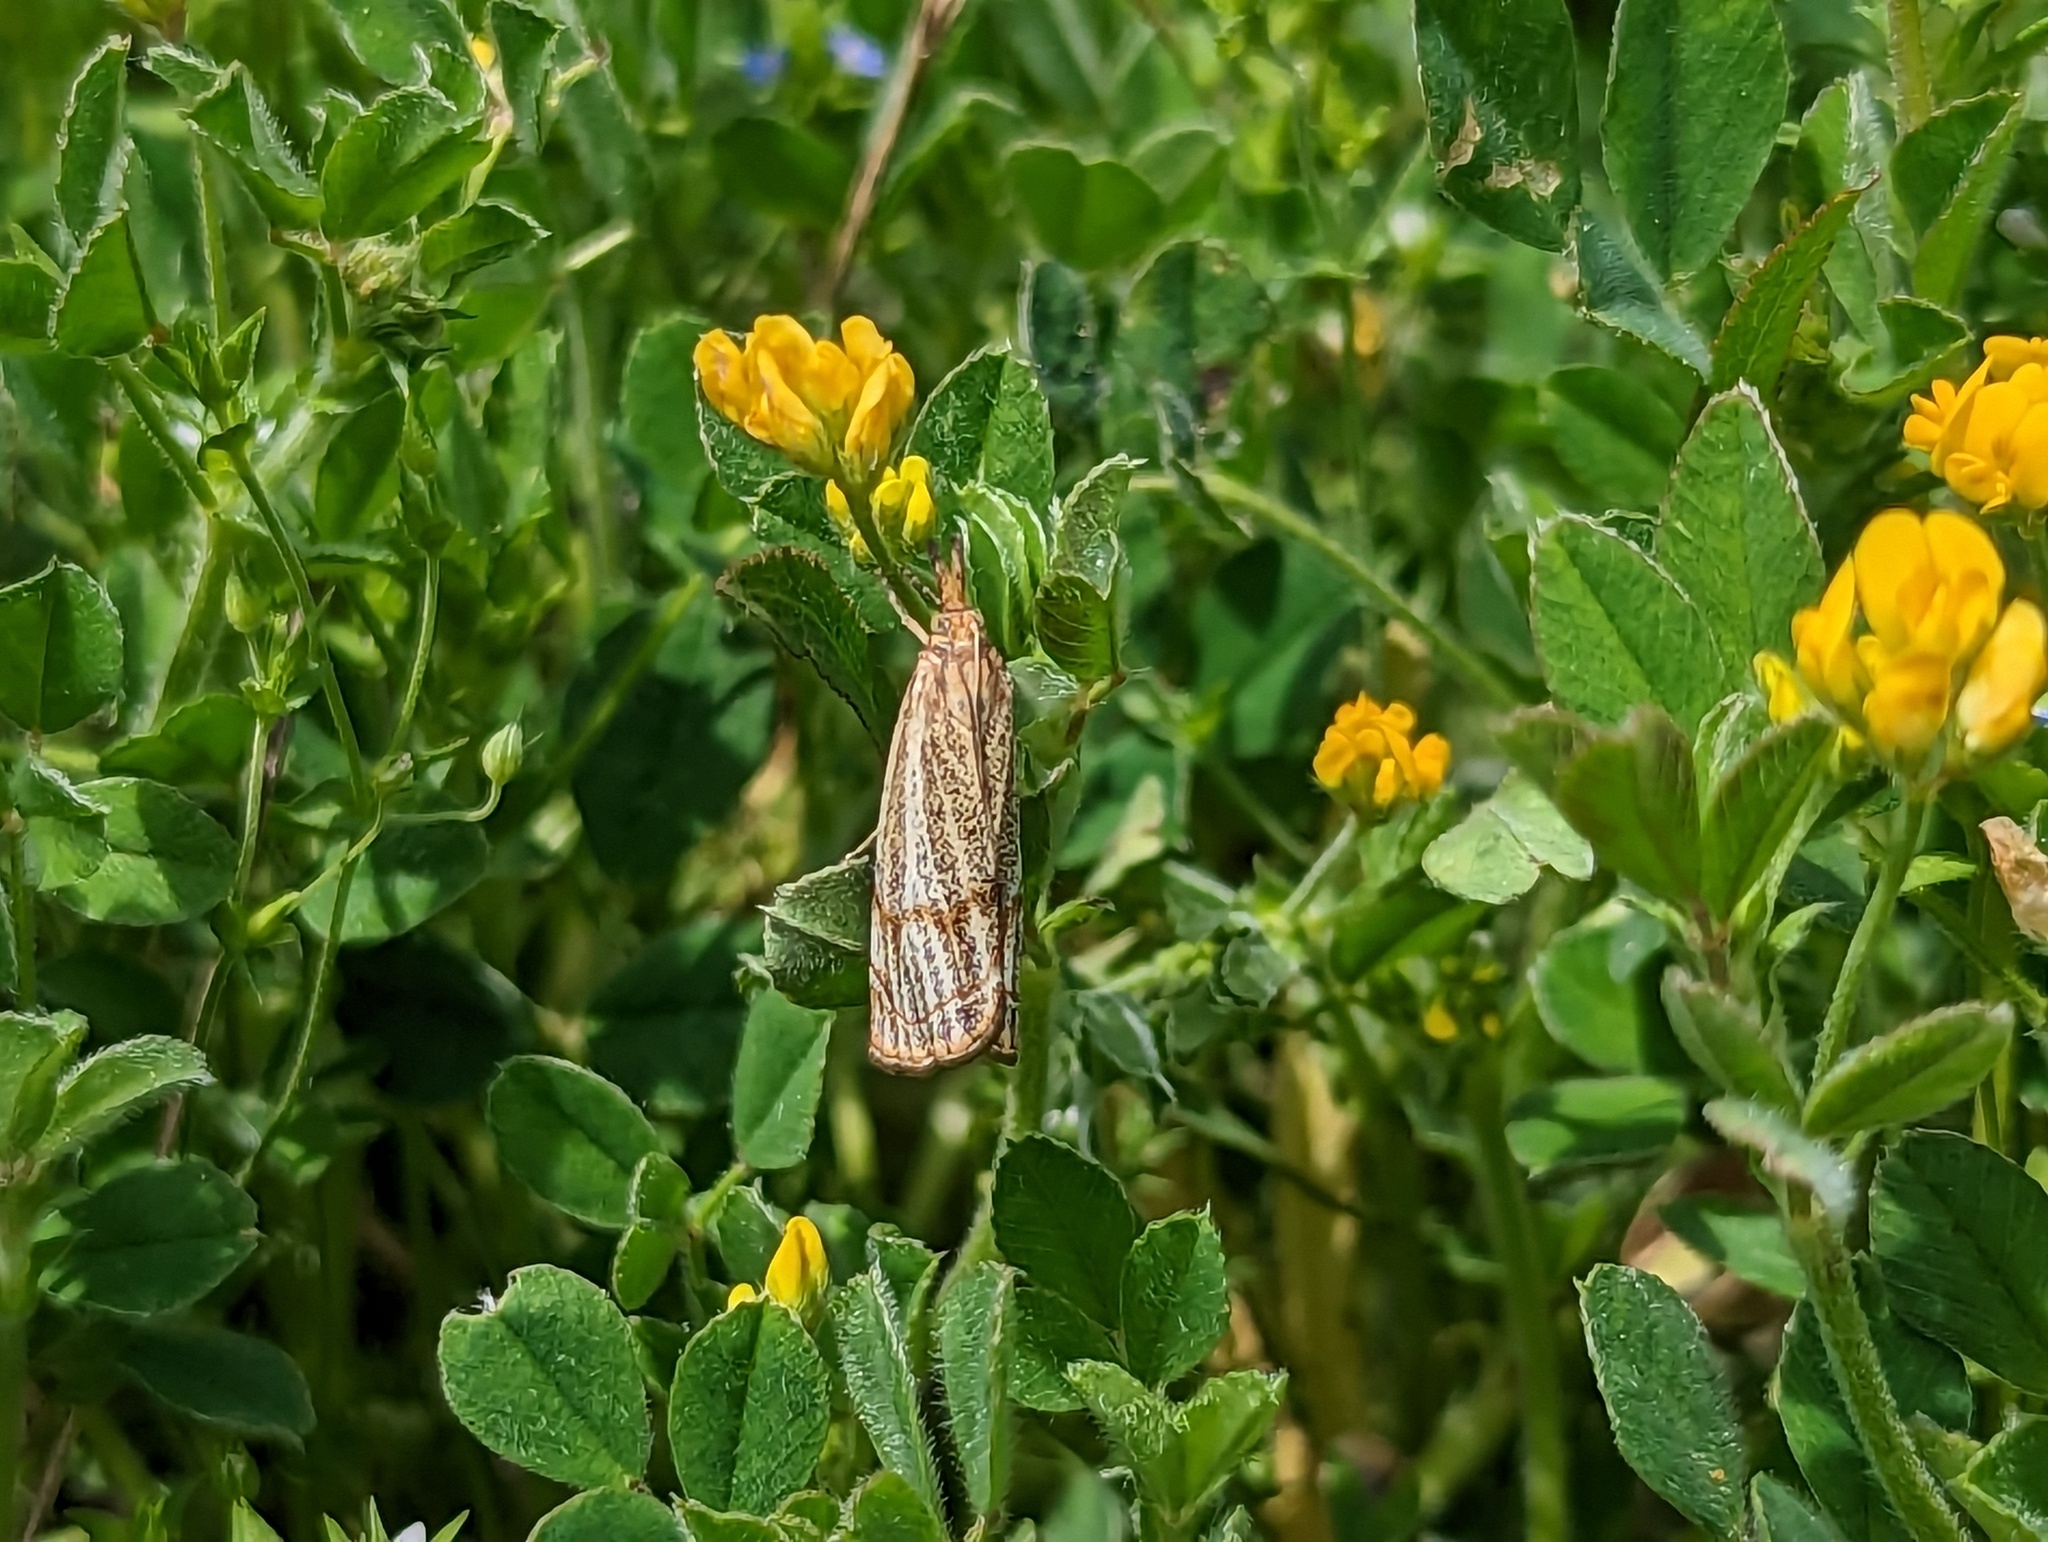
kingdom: Animalia
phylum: Arthropoda
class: Insecta
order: Lepidoptera
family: Crambidae
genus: Thisanotia
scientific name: Thisanotia chrysonuchella
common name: Powdered grass-veneer
